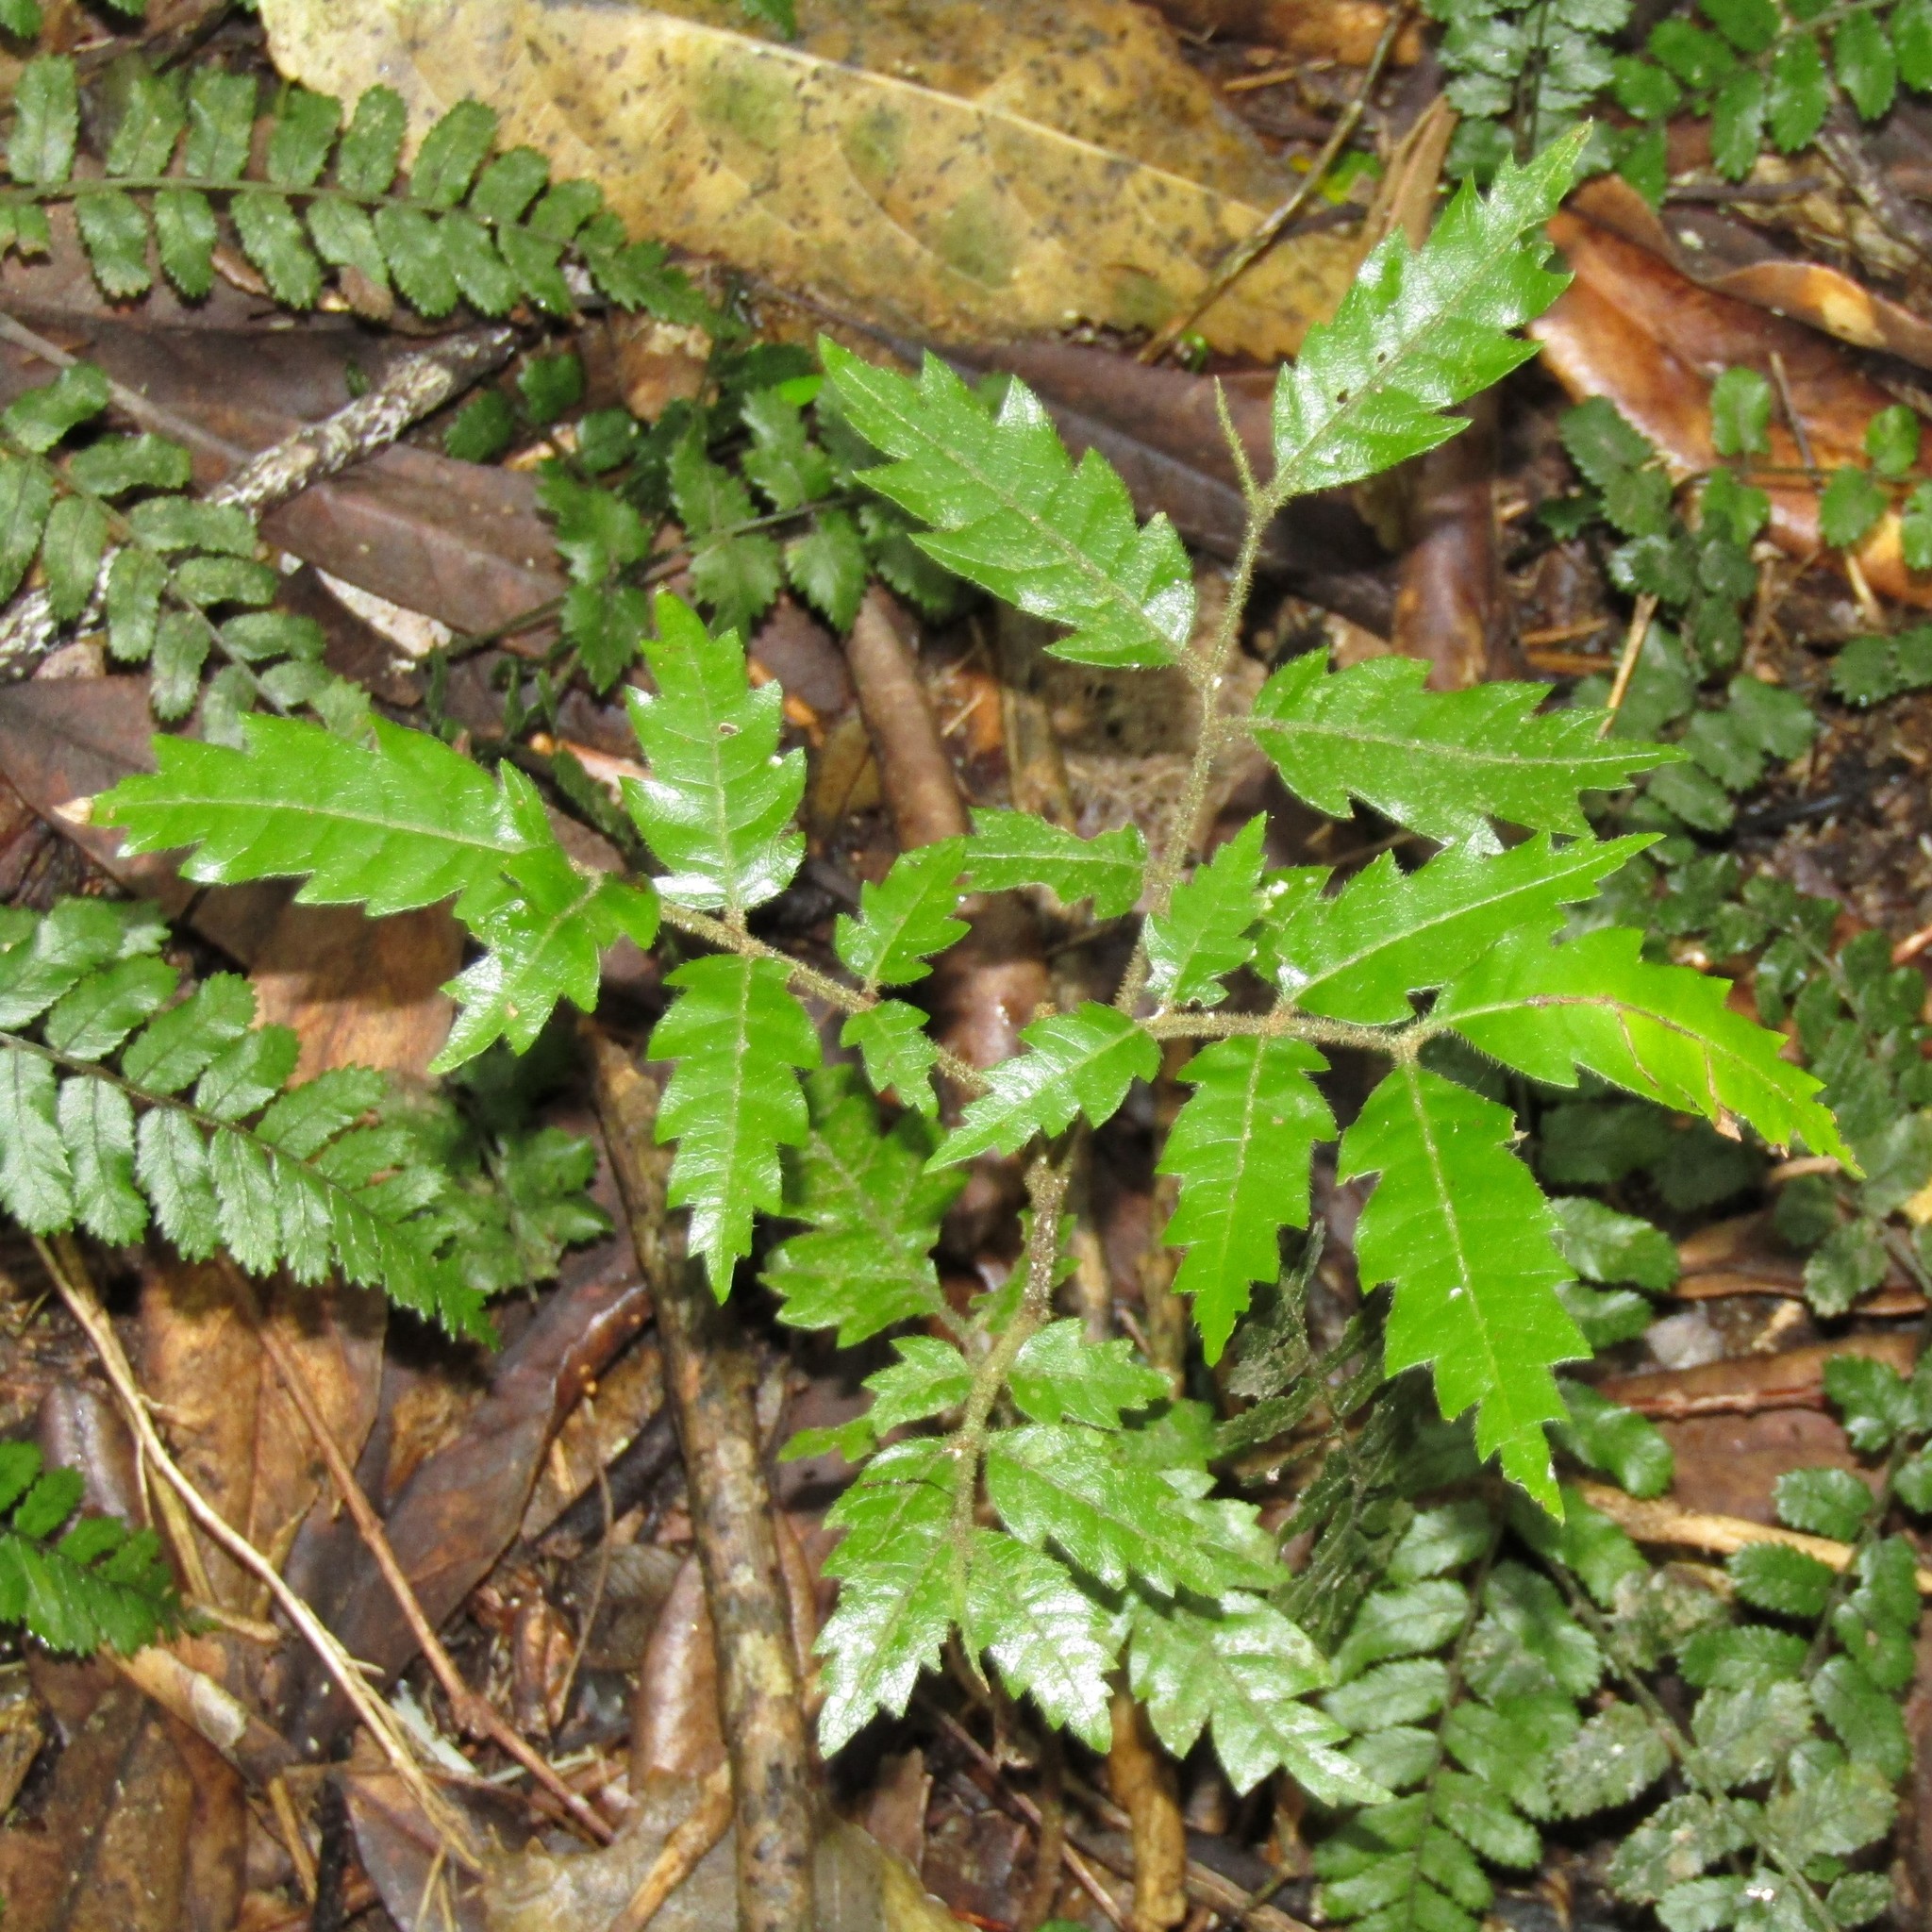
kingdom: Plantae
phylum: Tracheophyta
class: Magnoliopsida
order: Sapindales
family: Sapindaceae
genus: Alectryon
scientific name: Alectryon excelsus
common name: Three kings titoki
